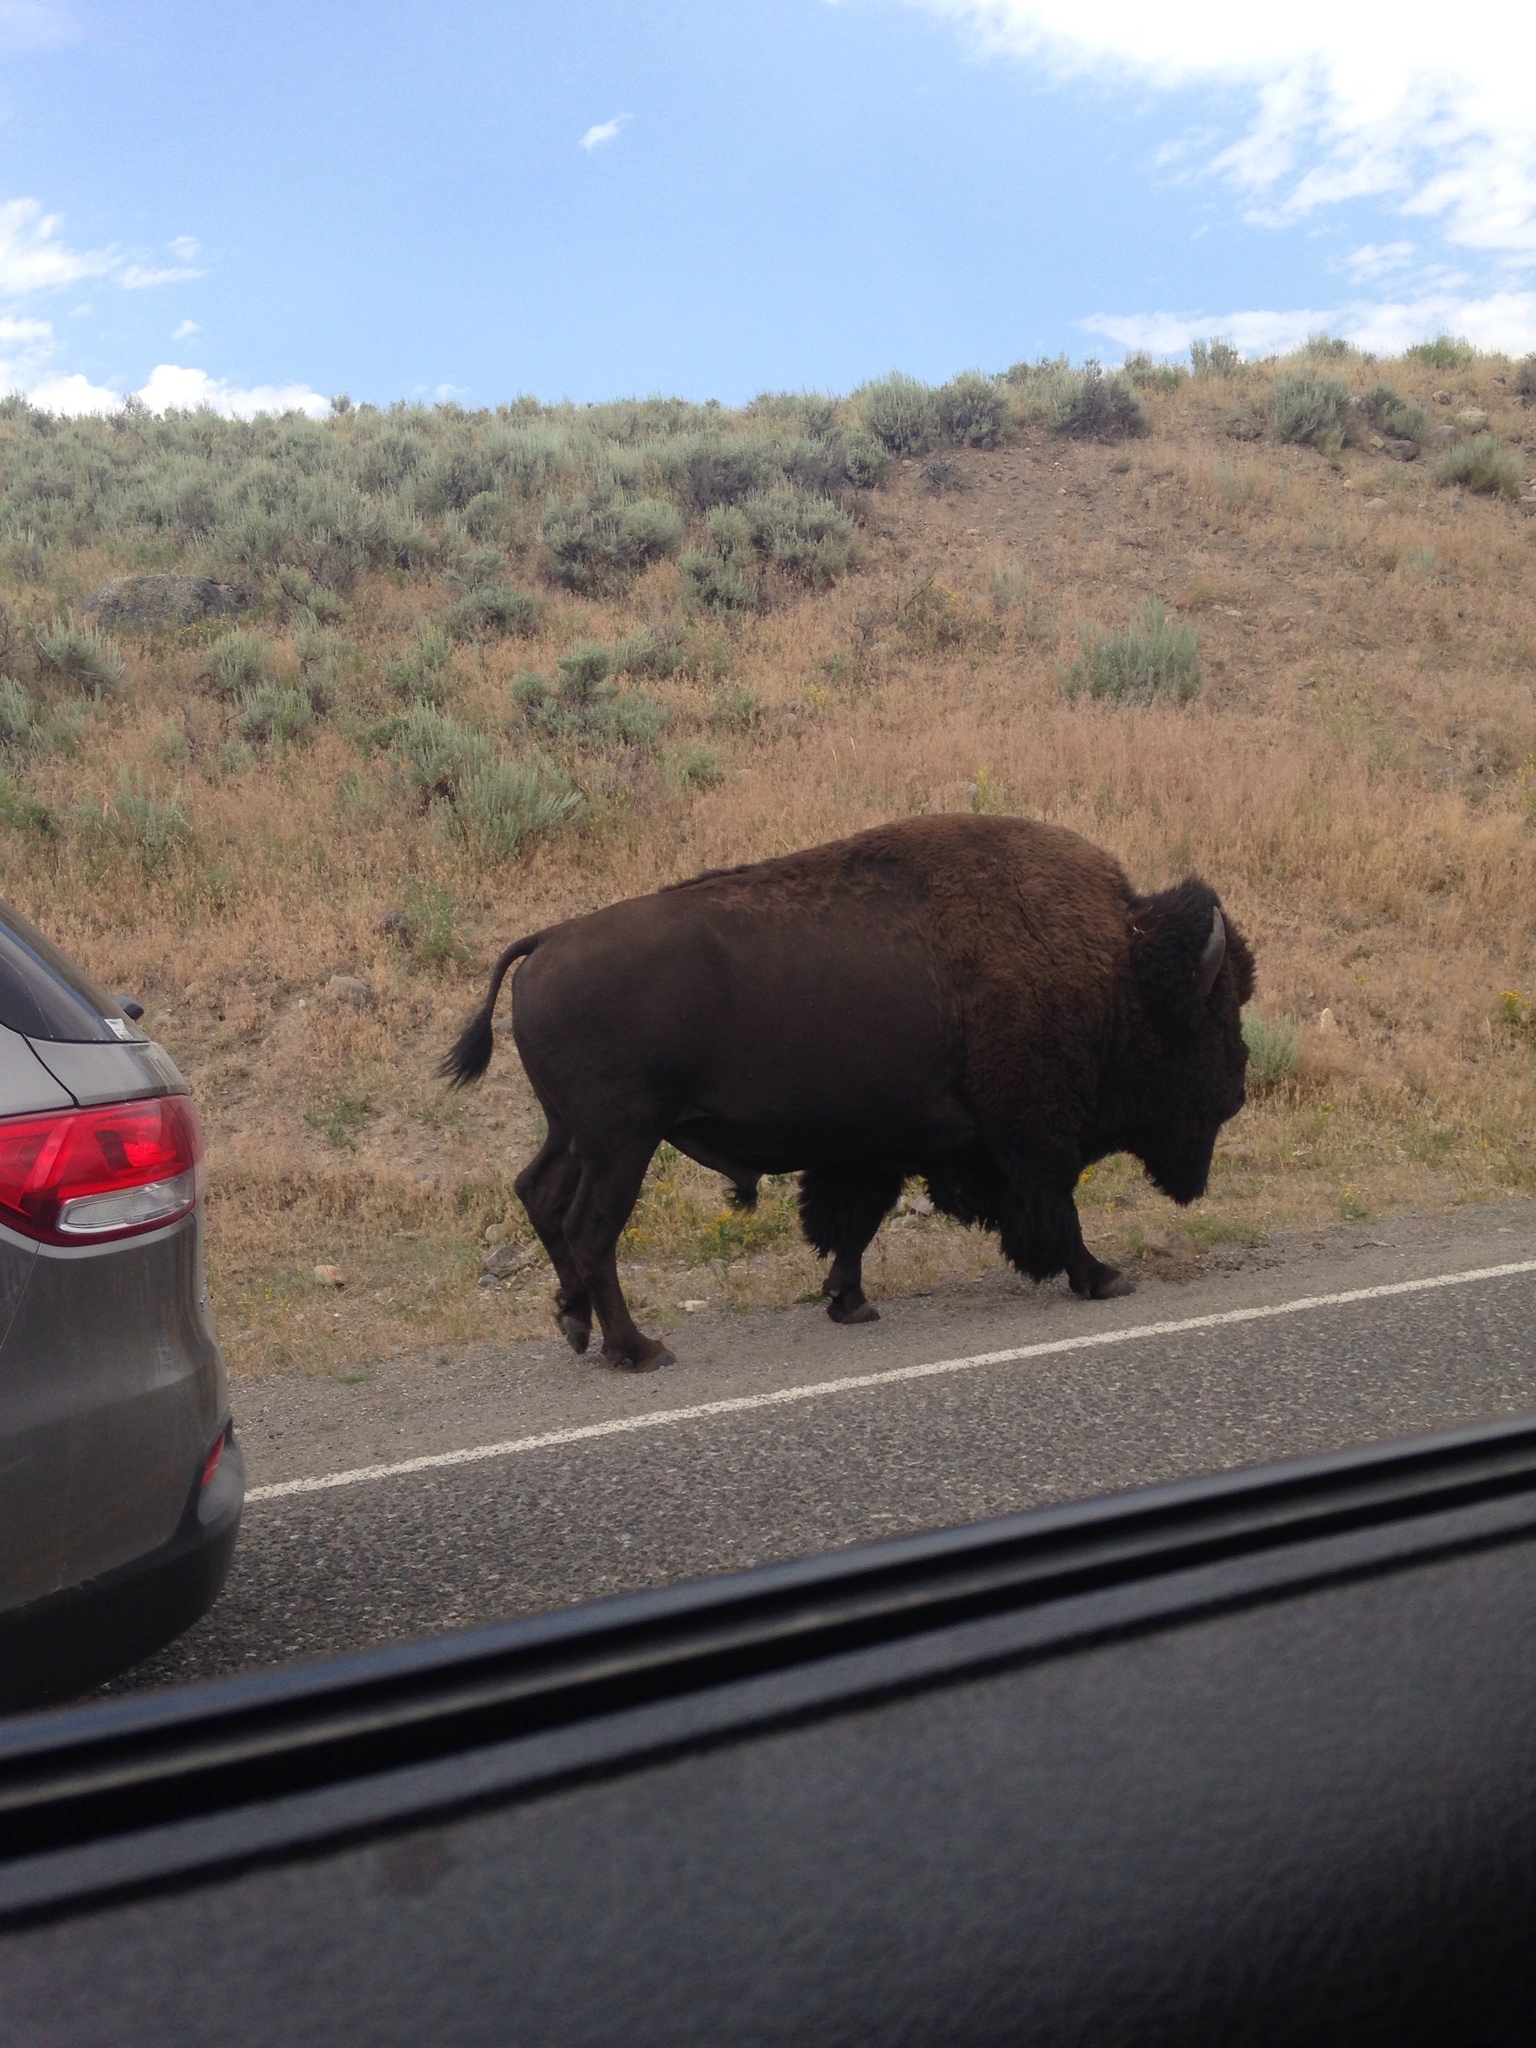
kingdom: Animalia
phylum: Chordata
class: Mammalia
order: Artiodactyla
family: Bovidae
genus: Bison
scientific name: Bison bison
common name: American bison
